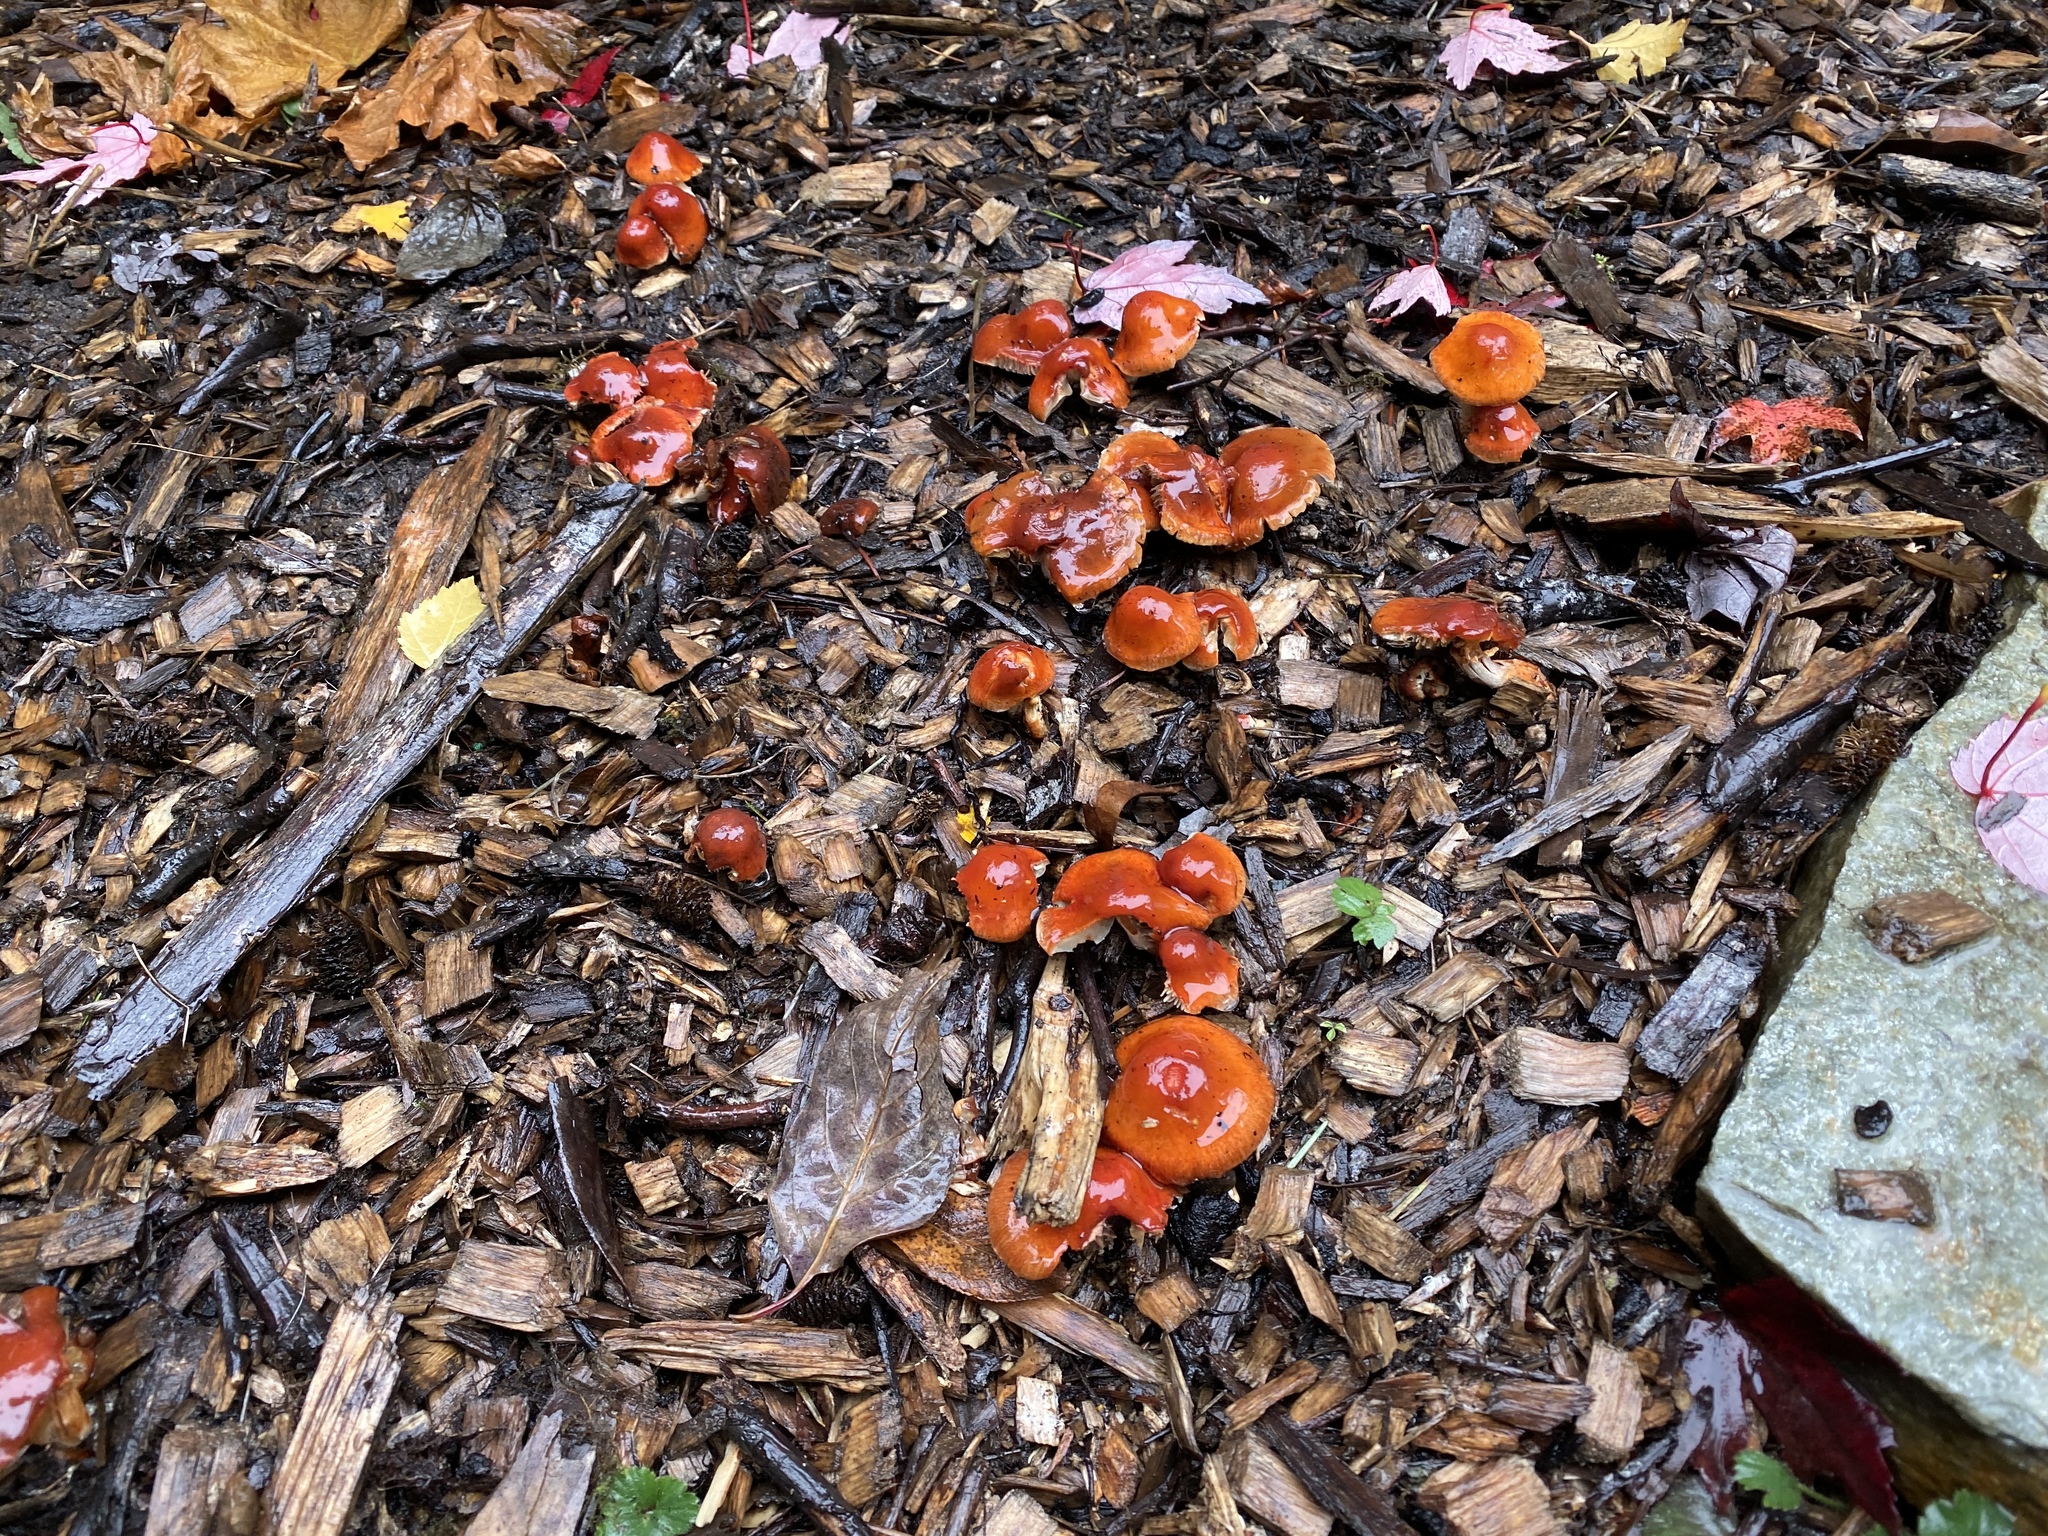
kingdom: Fungi
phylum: Basidiomycota
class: Agaricomycetes
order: Agaricales
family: Strophariaceae
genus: Leratiomyces
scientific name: Leratiomyces ceres
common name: Redlead roundhead
